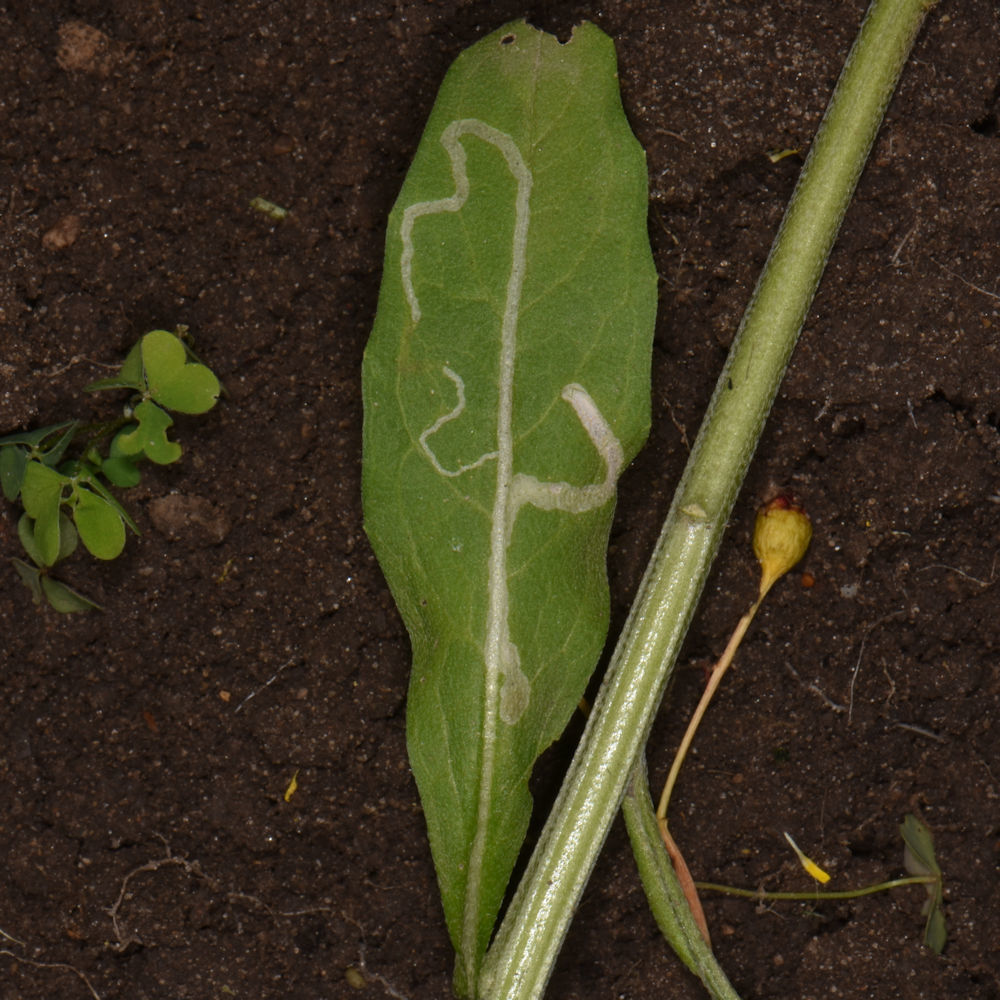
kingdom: Animalia
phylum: Arthropoda
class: Insecta
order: Diptera
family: Agromyzidae
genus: Liriomyza
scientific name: Liriomyza brassicae
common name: Serpentine leaf miner
